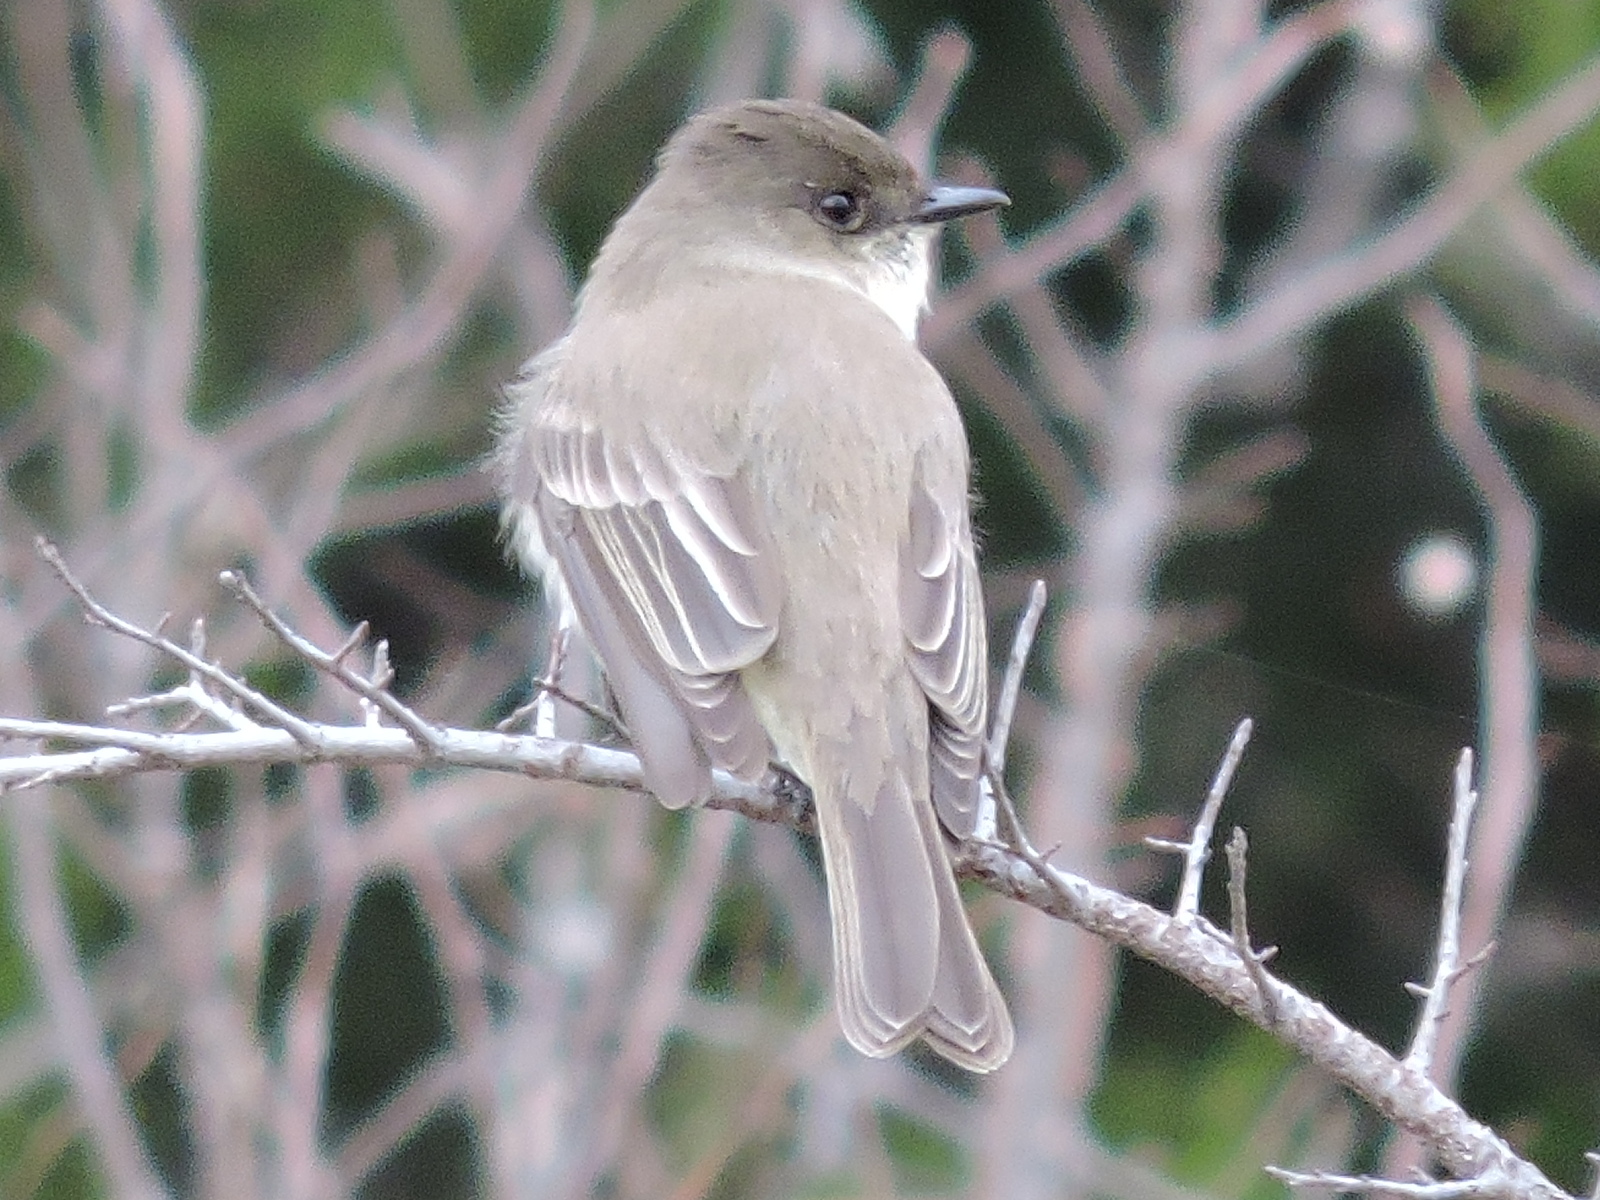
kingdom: Animalia
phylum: Chordata
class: Aves
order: Passeriformes
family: Tyrannidae
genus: Sayornis
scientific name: Sayornis phoebe
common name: Eastern phoebe
